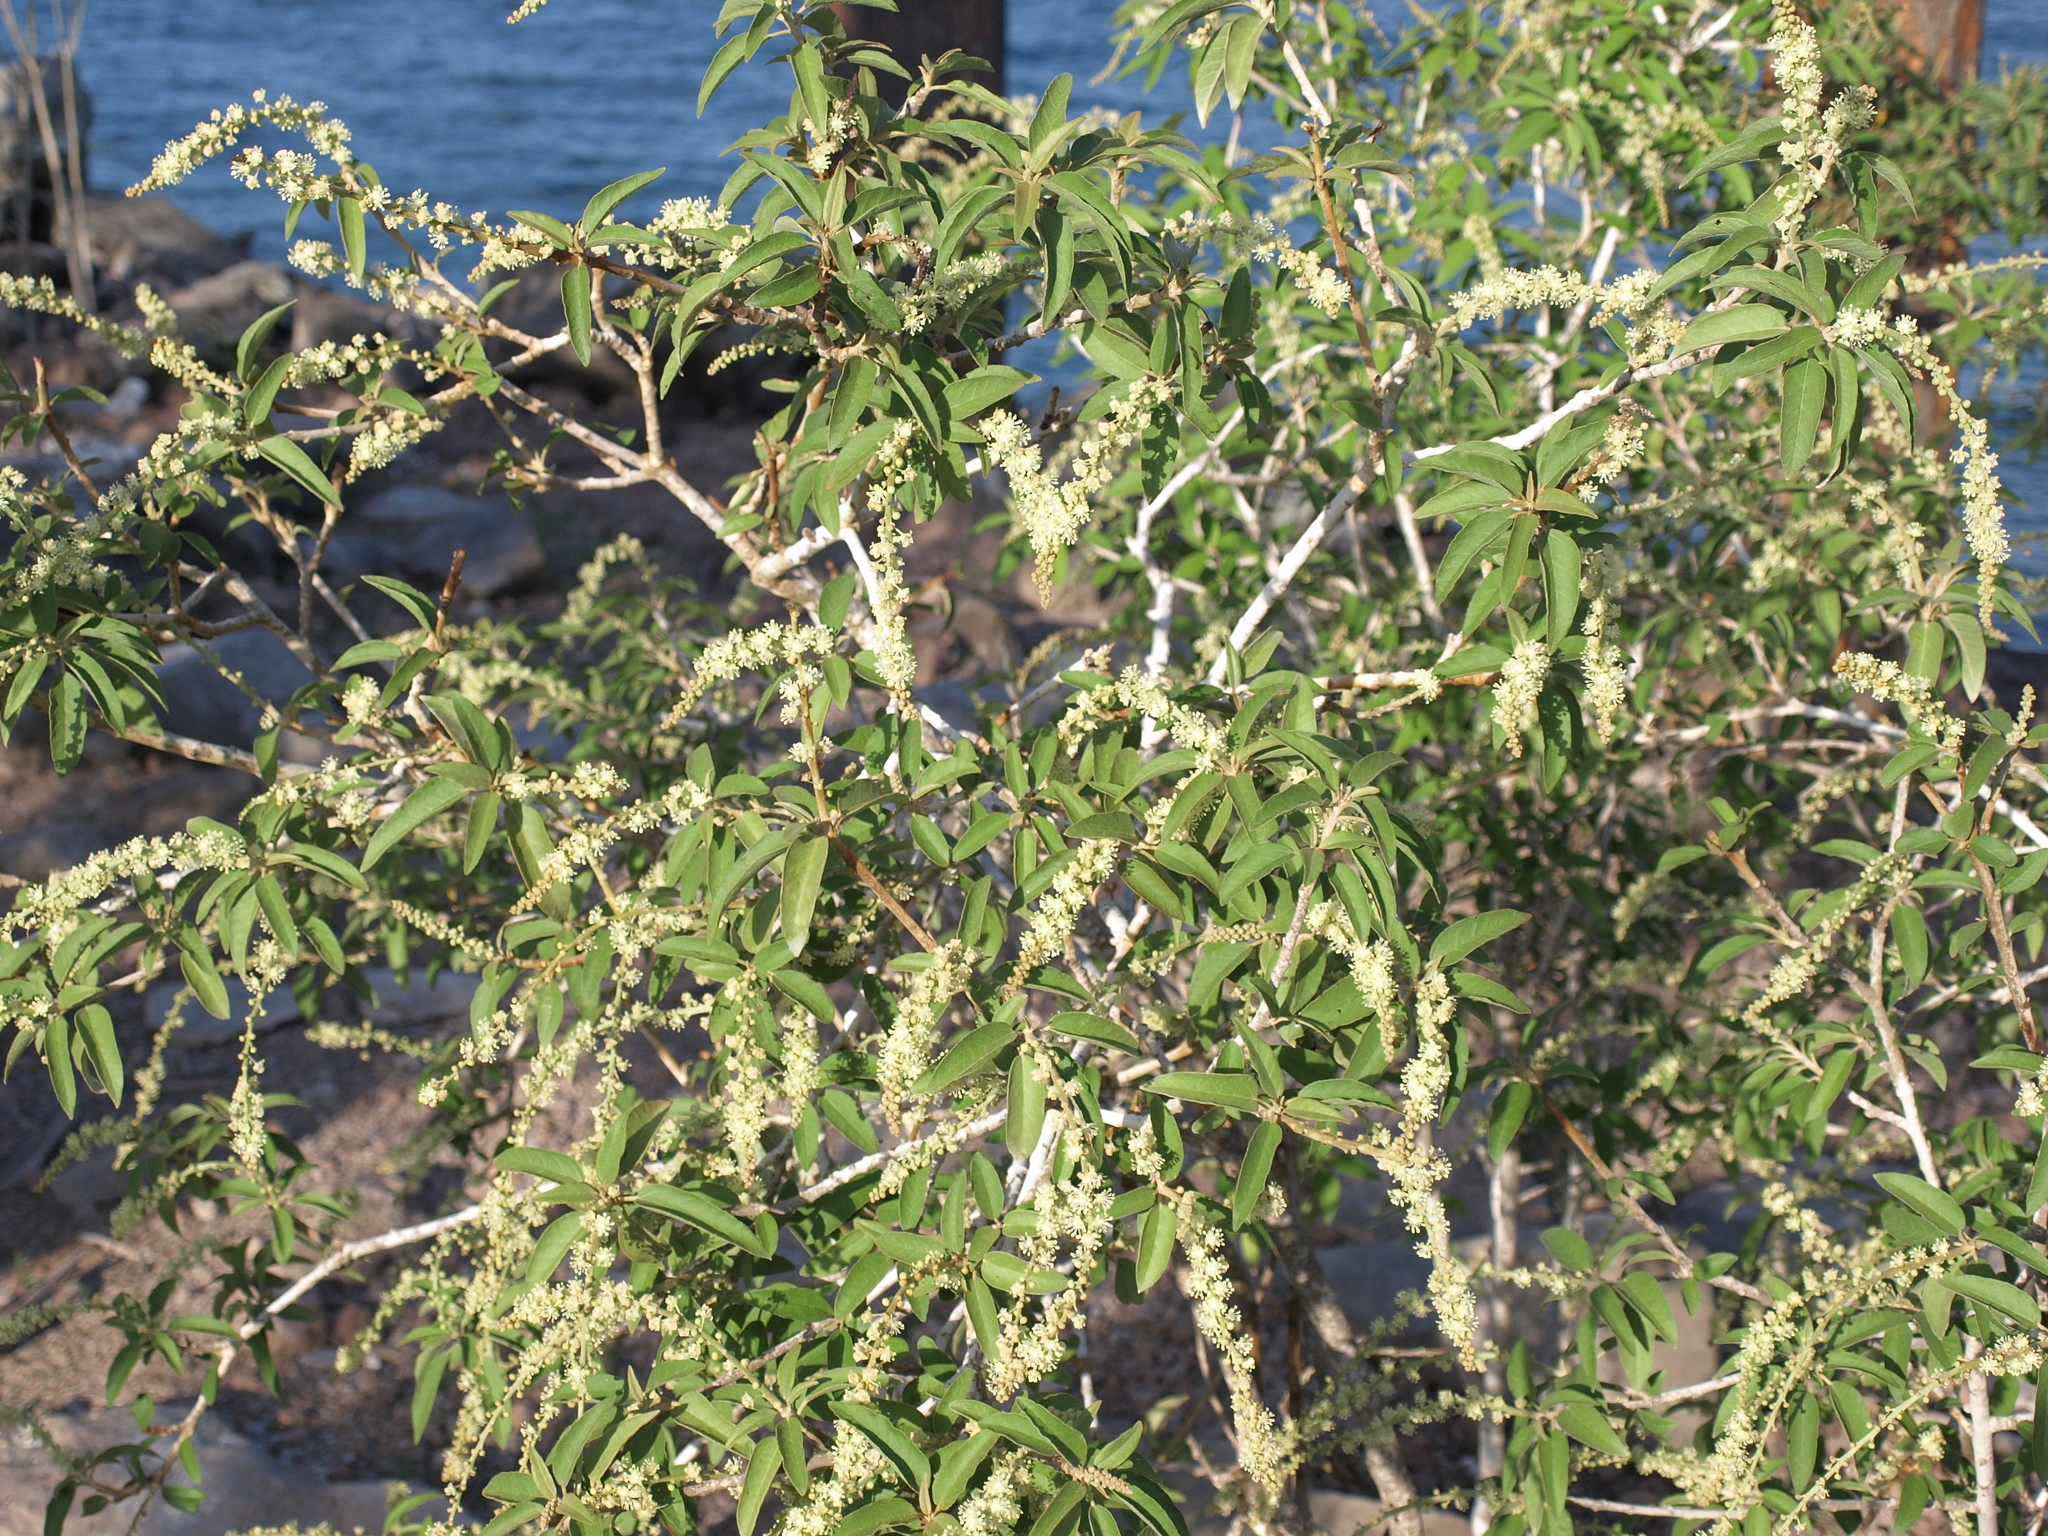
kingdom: Plantae
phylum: Tracheophyta
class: Magnoliopsida
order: Malpighiales
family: Euphorbiaceae
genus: Croton
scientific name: Croton scouleri
